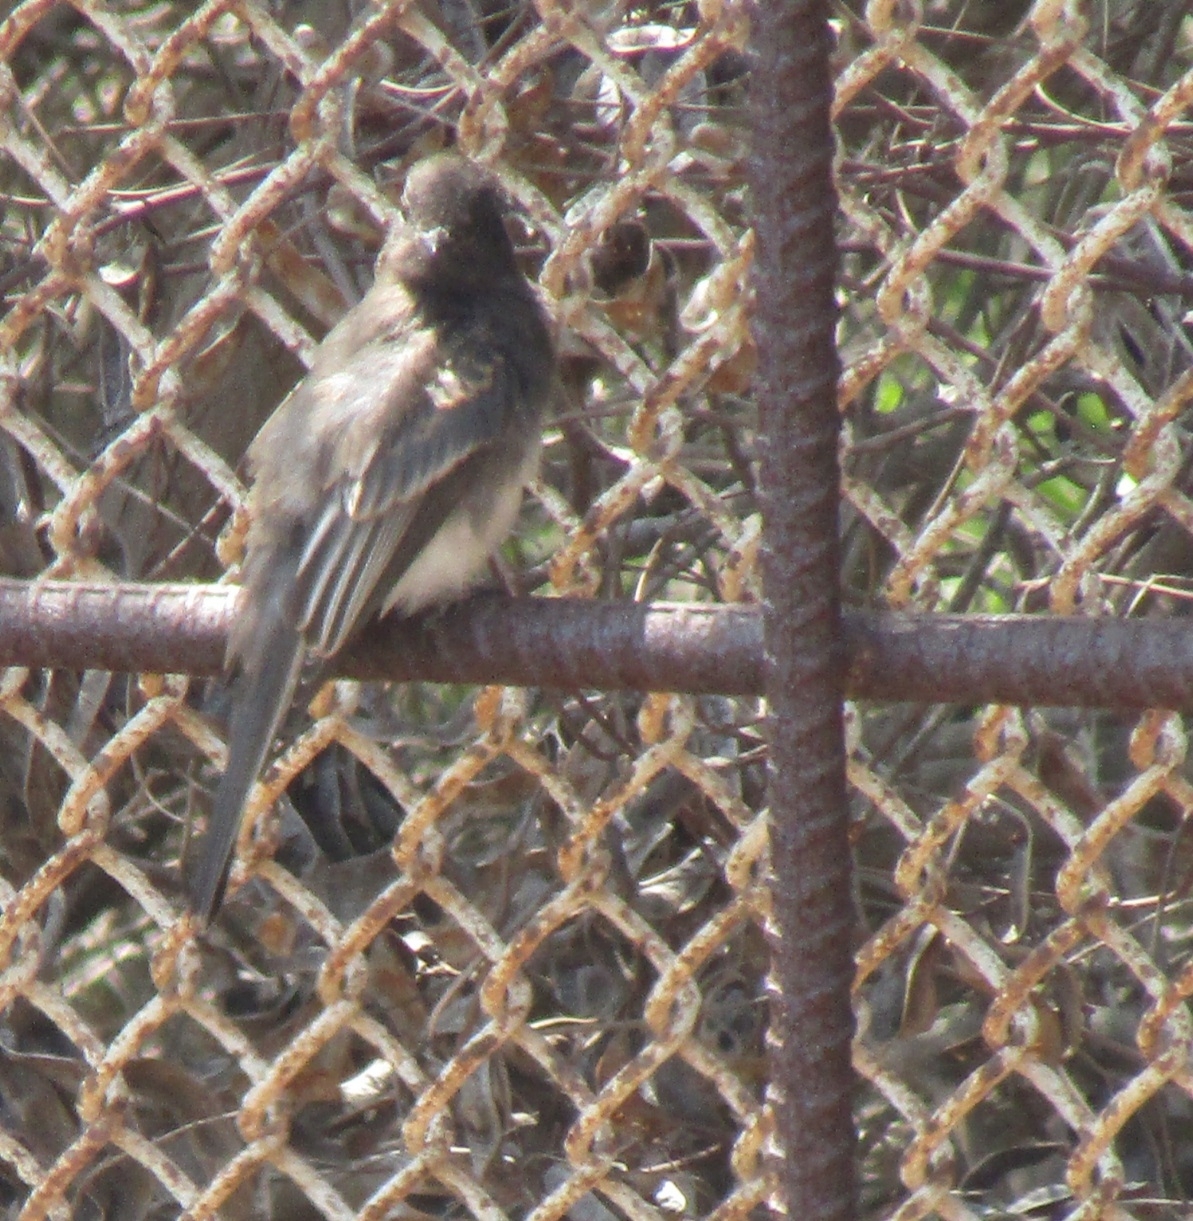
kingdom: Animalia
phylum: Chordata
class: Aves
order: Passeriformes
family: Tyrannidae
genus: Sayornis
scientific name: Sayornis nigricans
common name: Black phoebe
